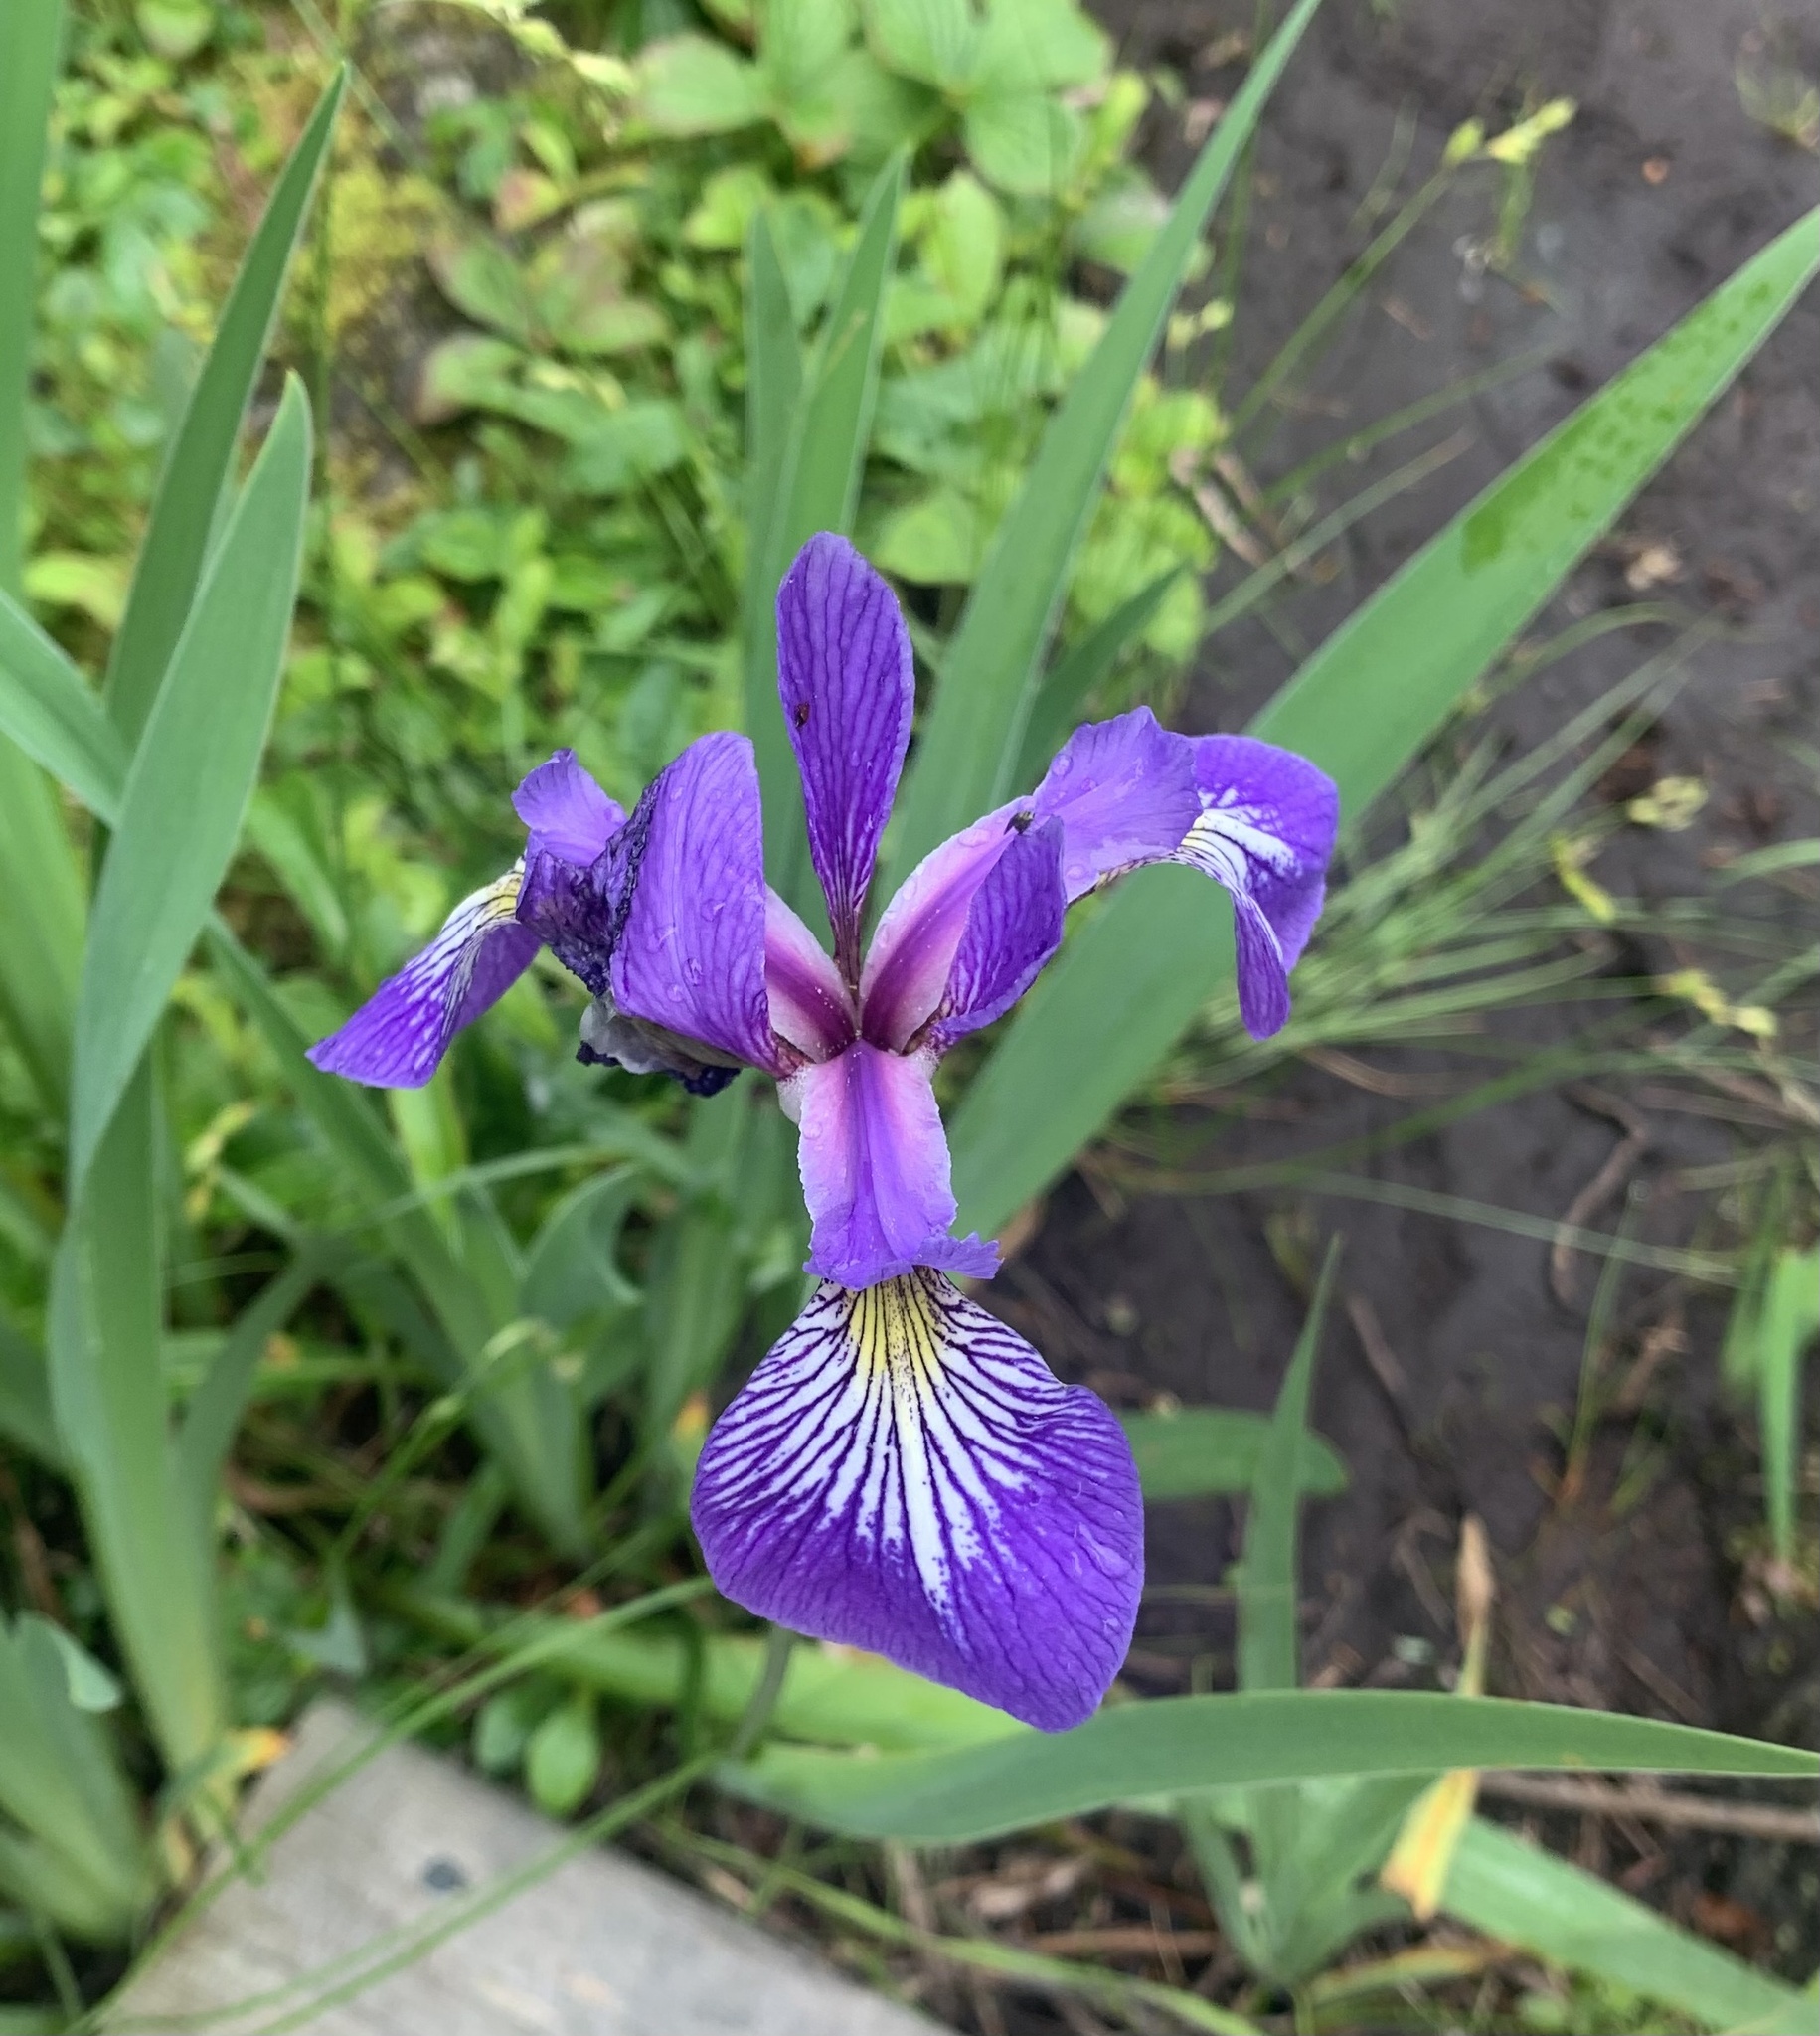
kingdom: Plantae
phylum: Tracheophyta
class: Liliopsida
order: Asparagales
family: Iridaceae
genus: Iris
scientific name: Iris versicolor
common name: Purple iris
